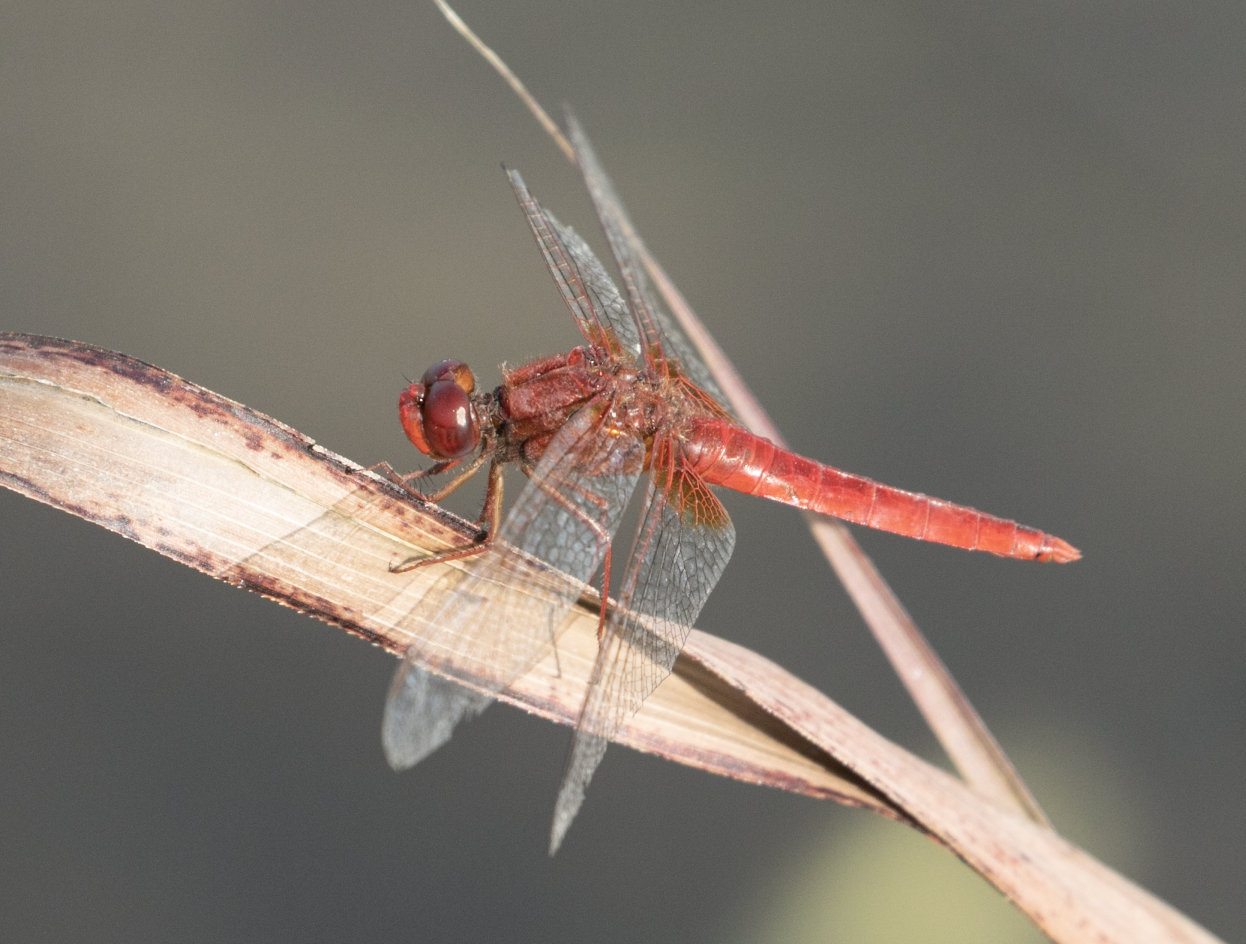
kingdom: Animalia
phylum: Arthropoda
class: Insecta
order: Odonata
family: Libellulidae
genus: Crocothemis
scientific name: Crocothemis erythraea
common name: Scarlet dragonfly
